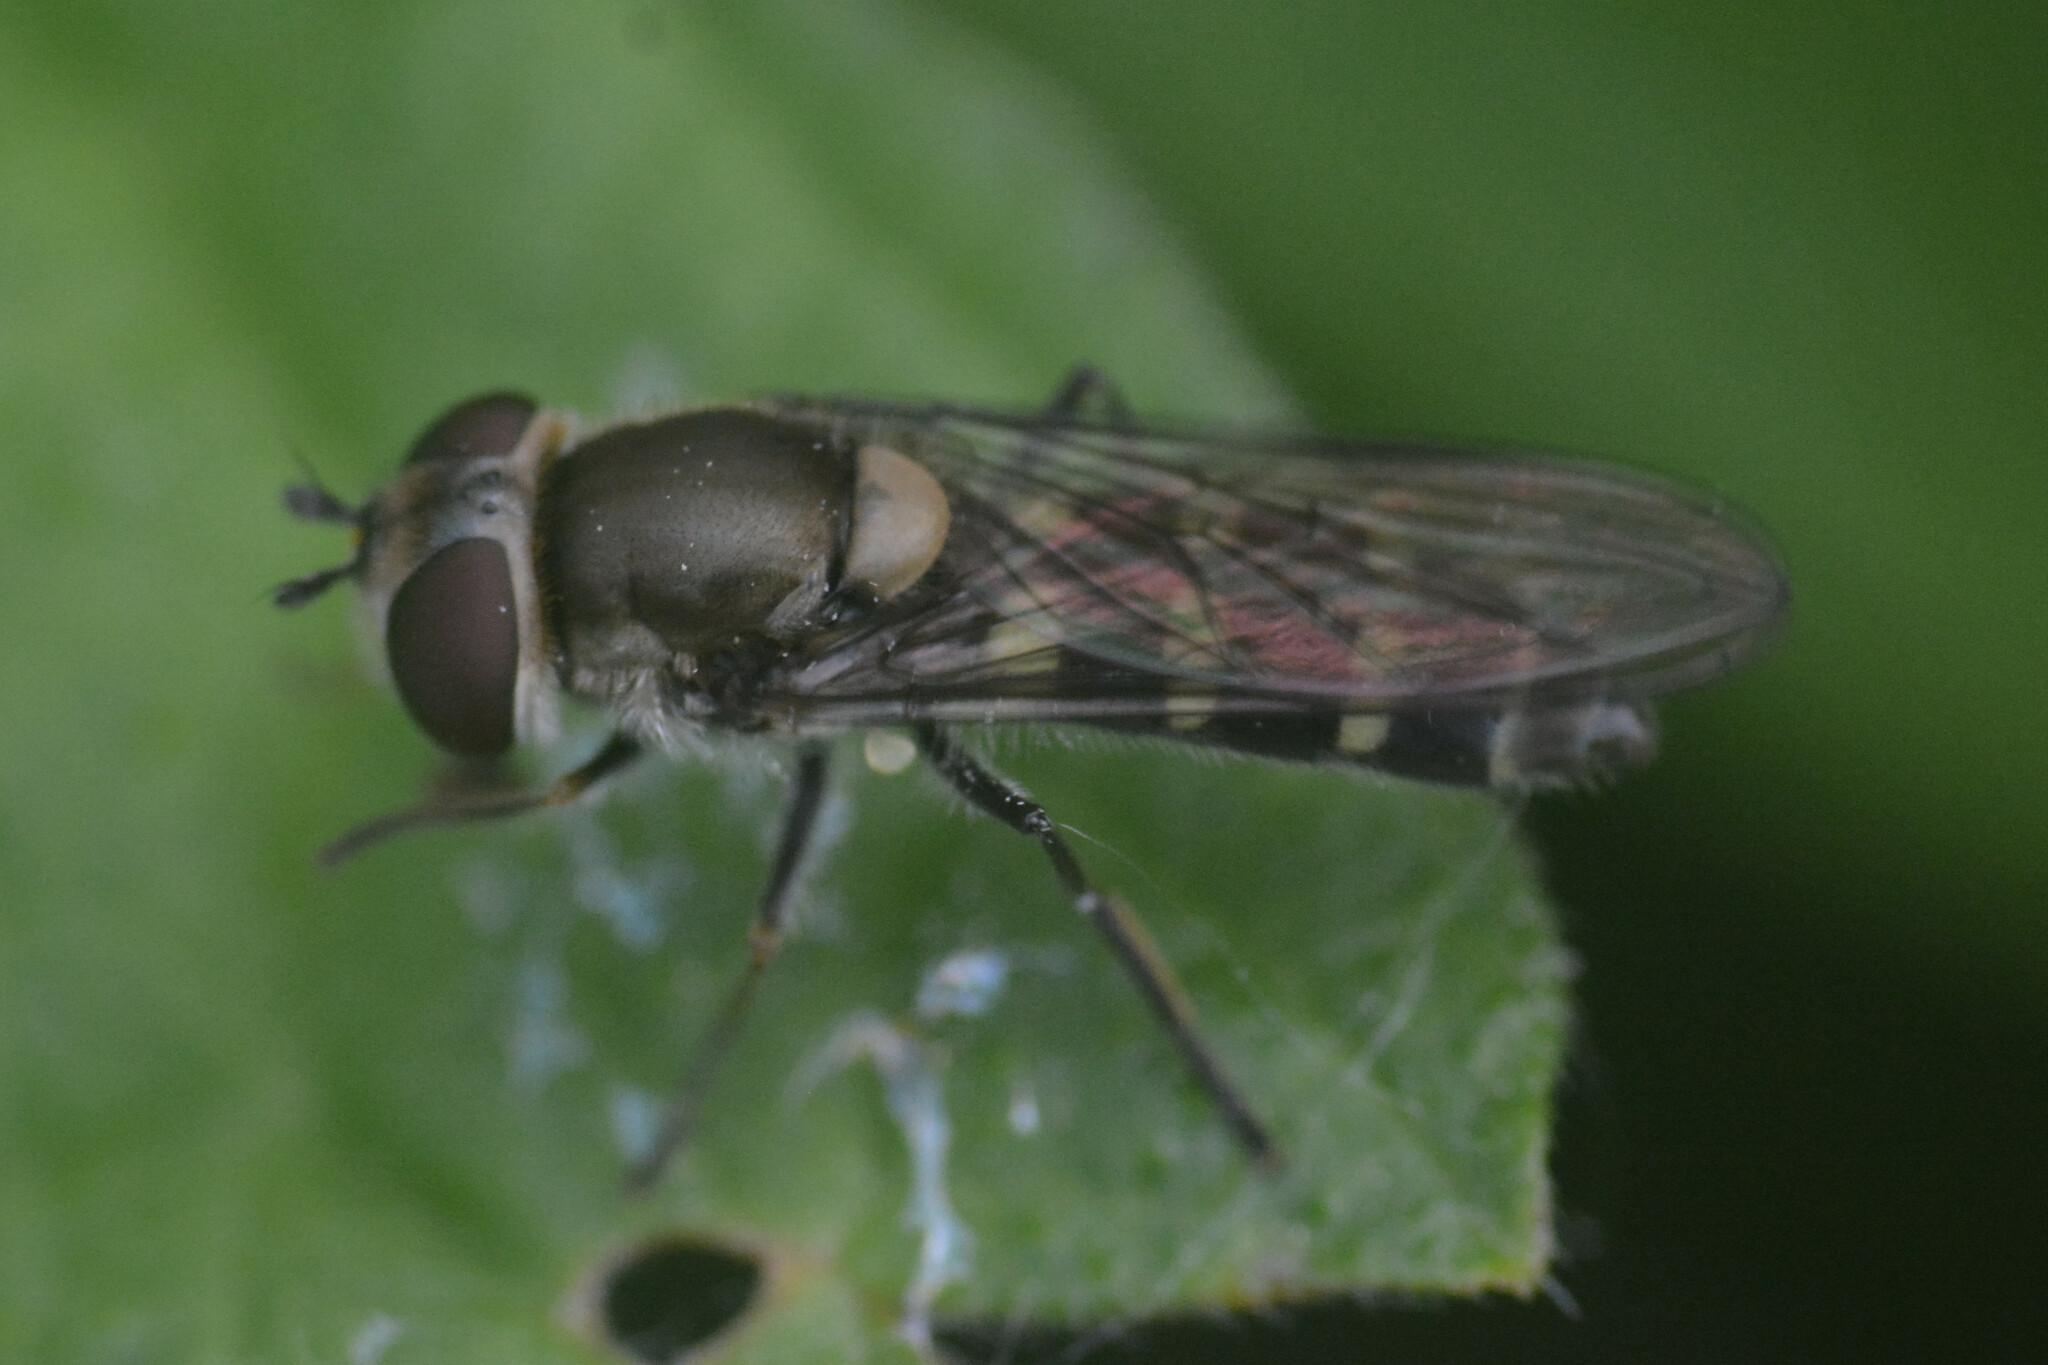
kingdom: Animalia
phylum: Arthropoda
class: Insecta
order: Diptera
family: Syrphidae
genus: Melangyna
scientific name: Melangyna labiatarum
